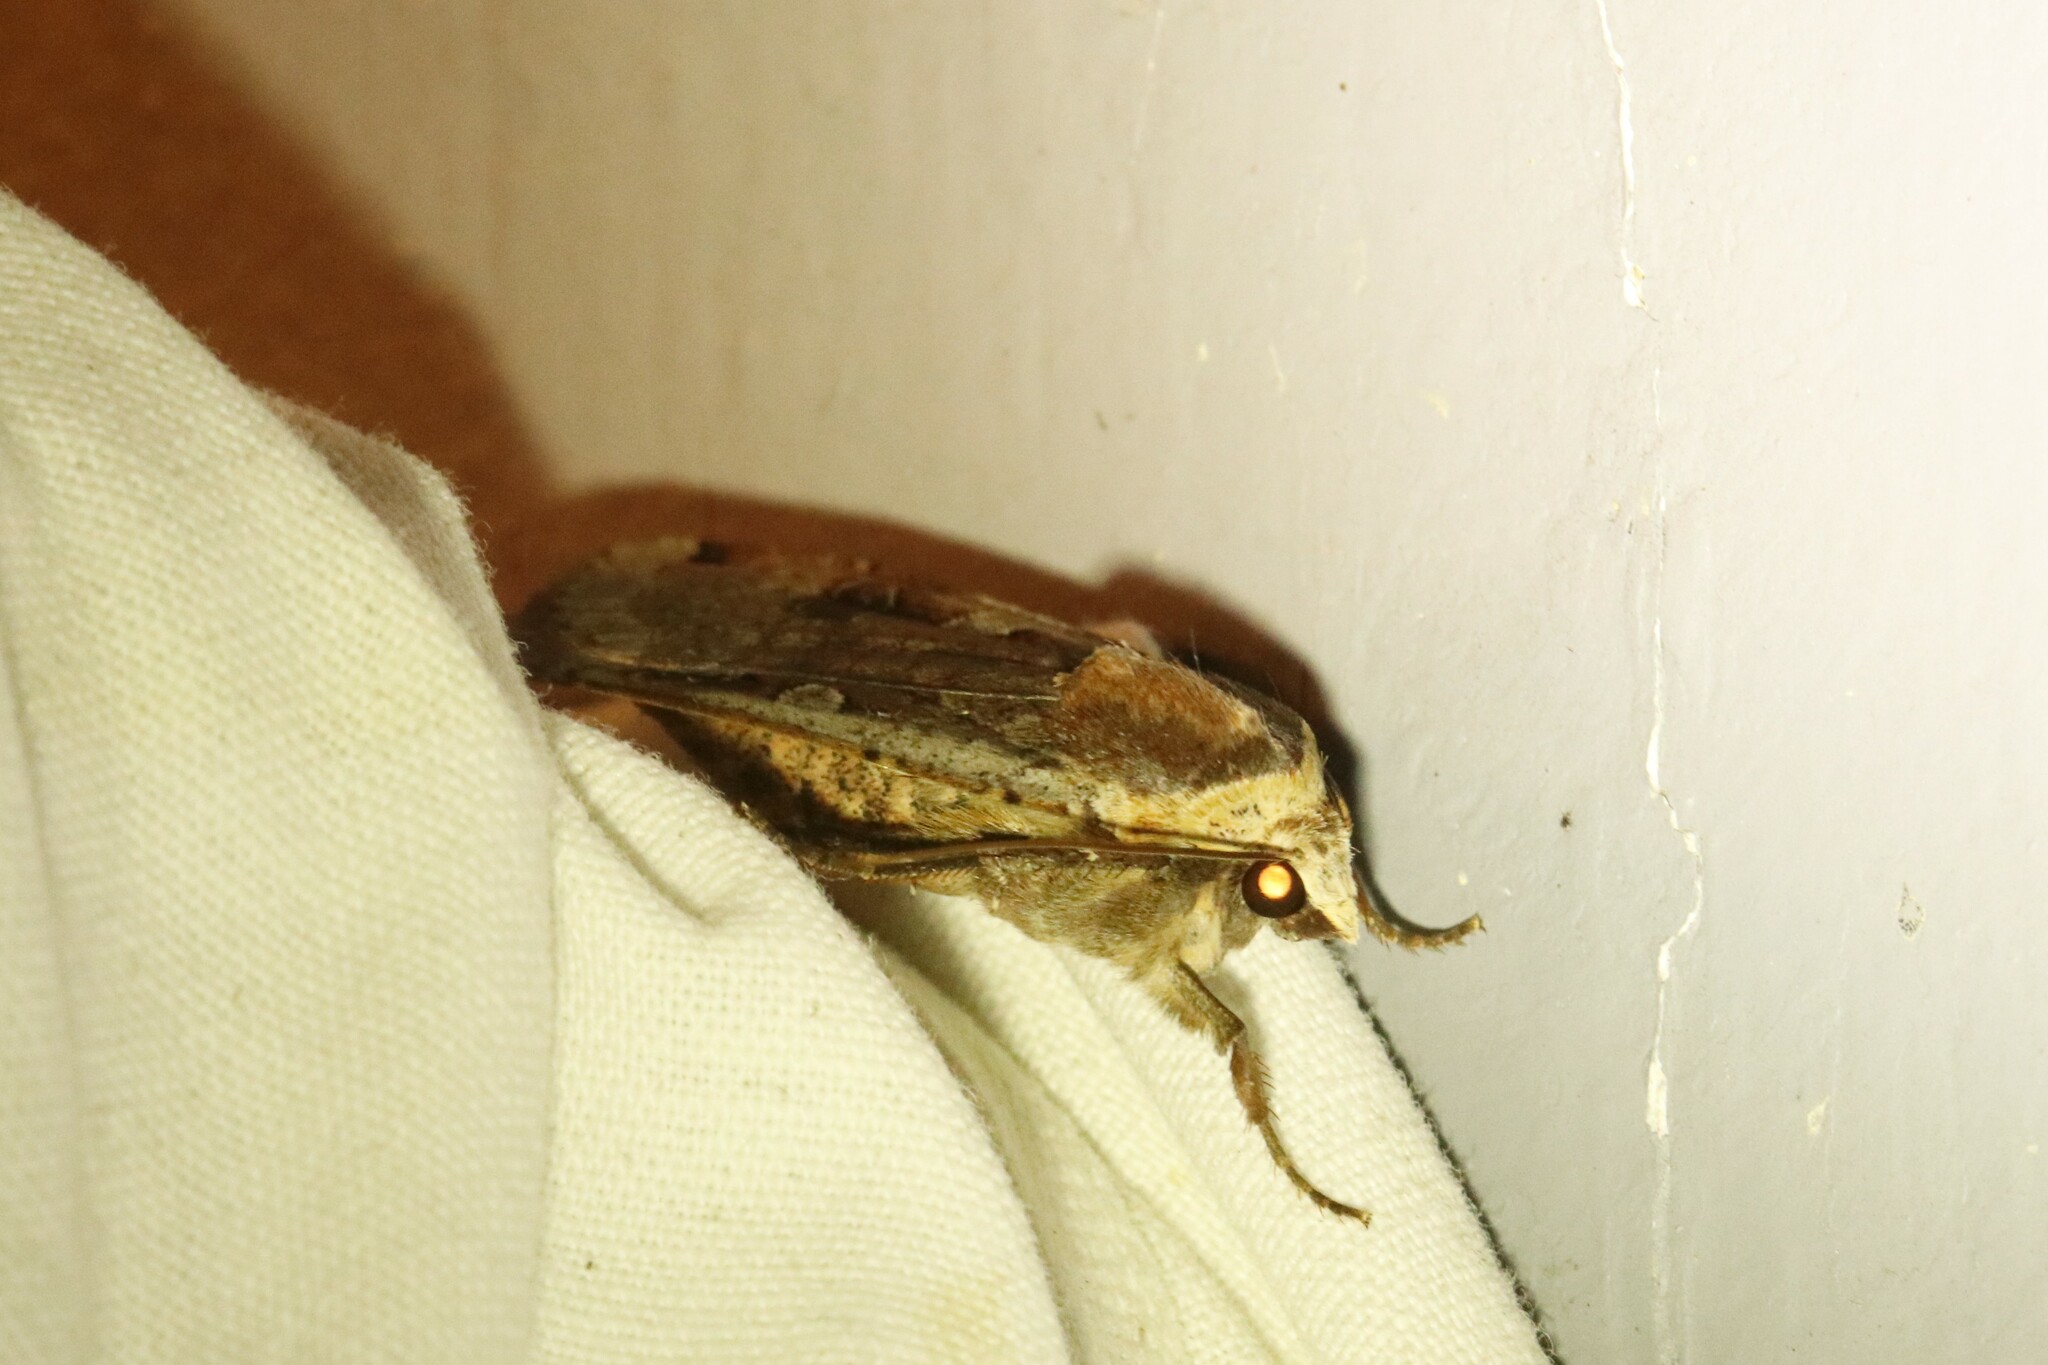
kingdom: Animalia
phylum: Arthropoda
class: Insecta
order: Lepidoptera
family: Noctuidae
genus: Noctua
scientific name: Noctua pronuba
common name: Large yellow underwing
